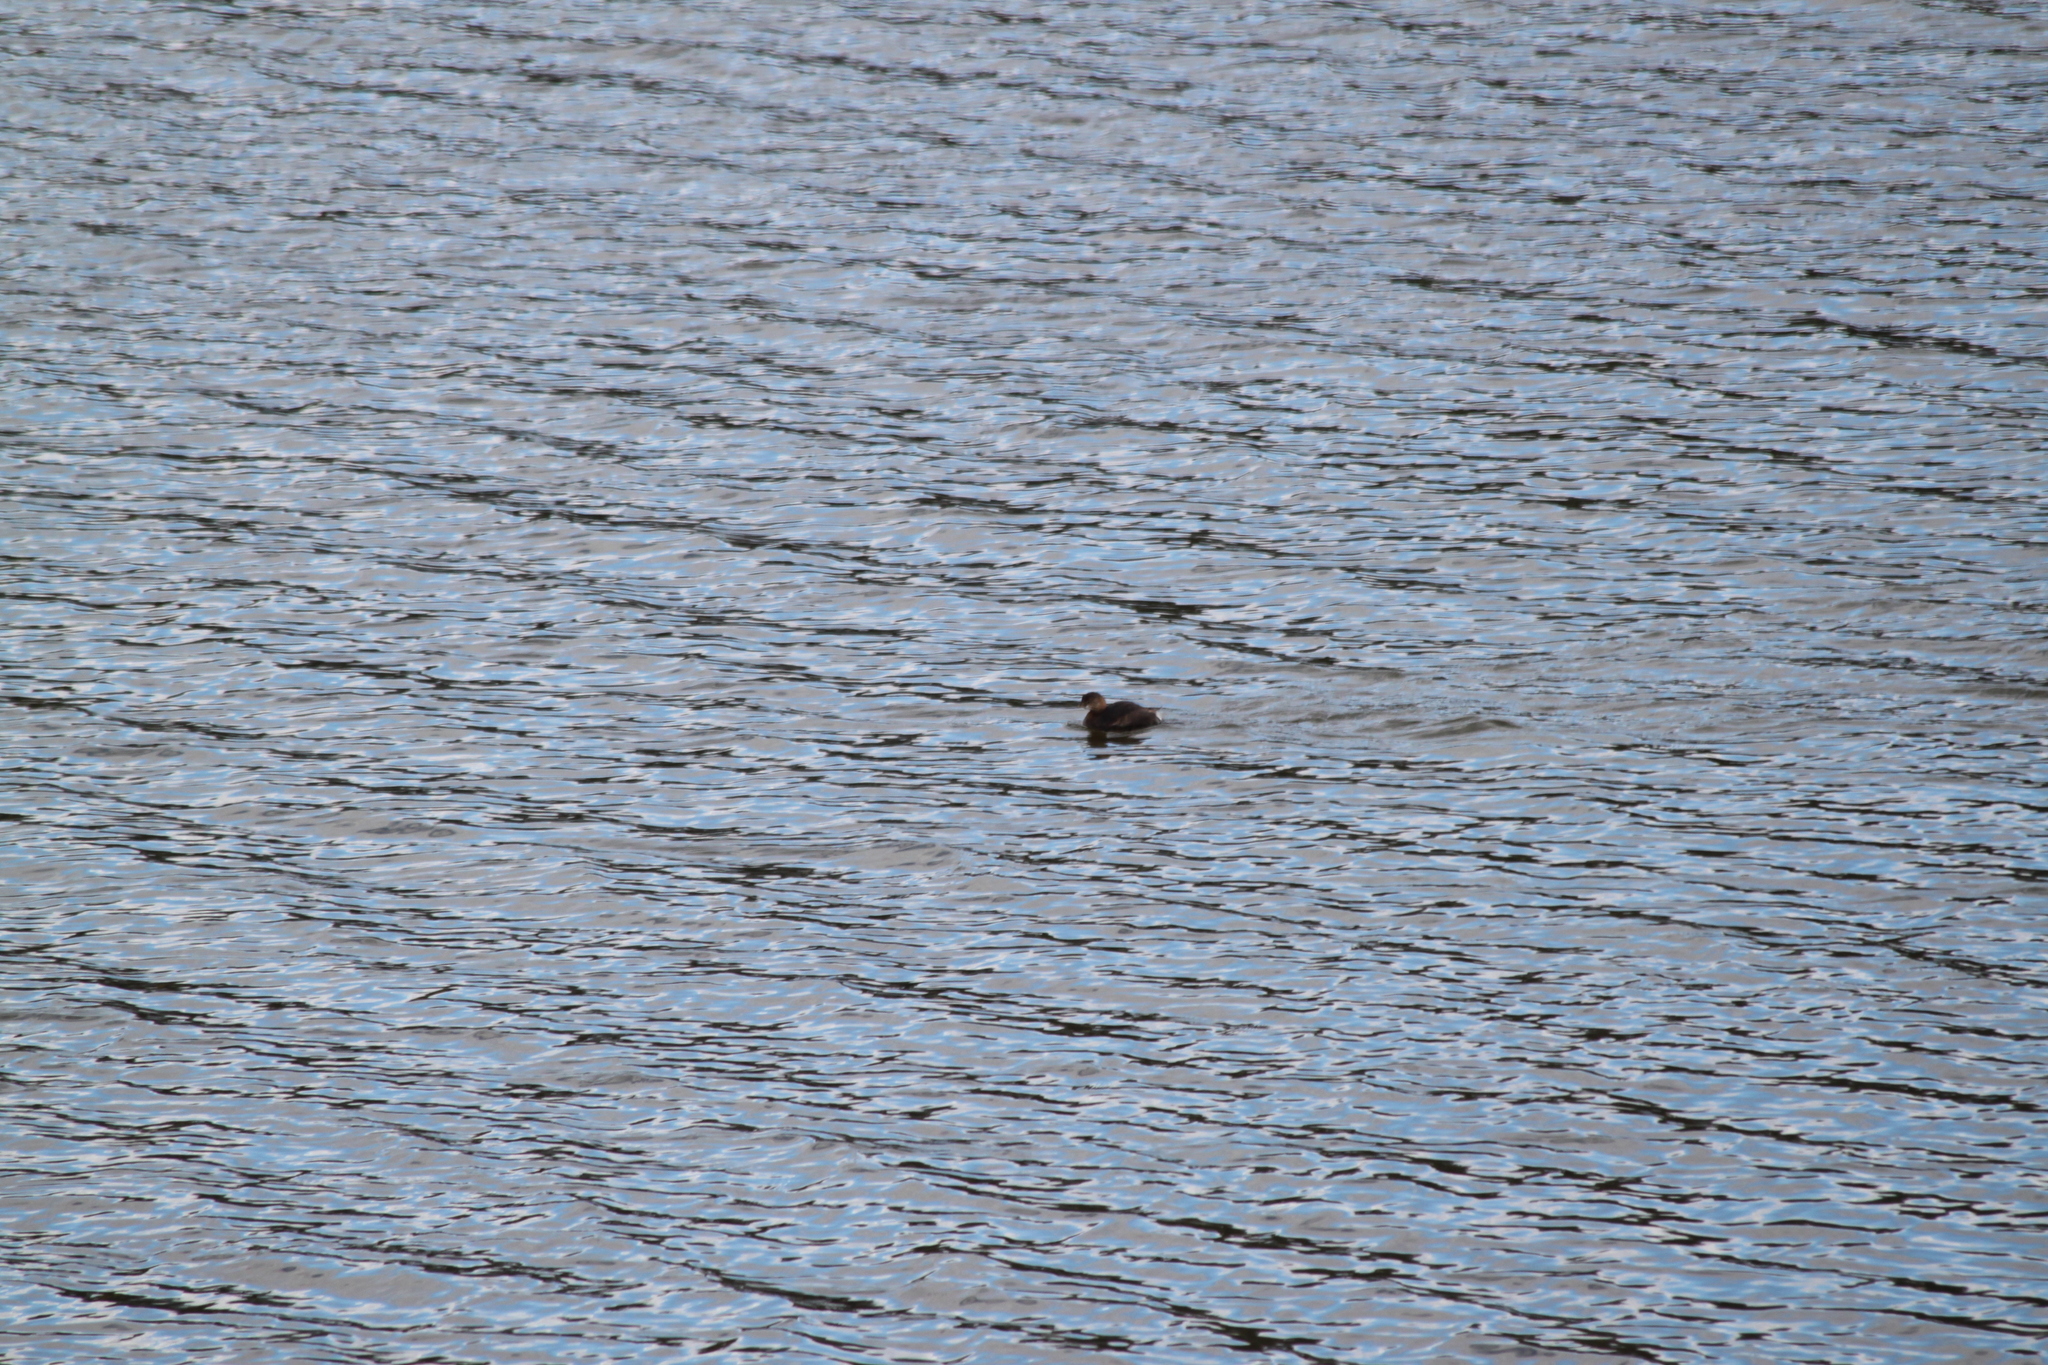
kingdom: Animalia
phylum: Chordata
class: Aves
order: Podicipediformes
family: Podicipedidae
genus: Podilymbus
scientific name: Podilymbus podiceps
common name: Pied-billed grebe
